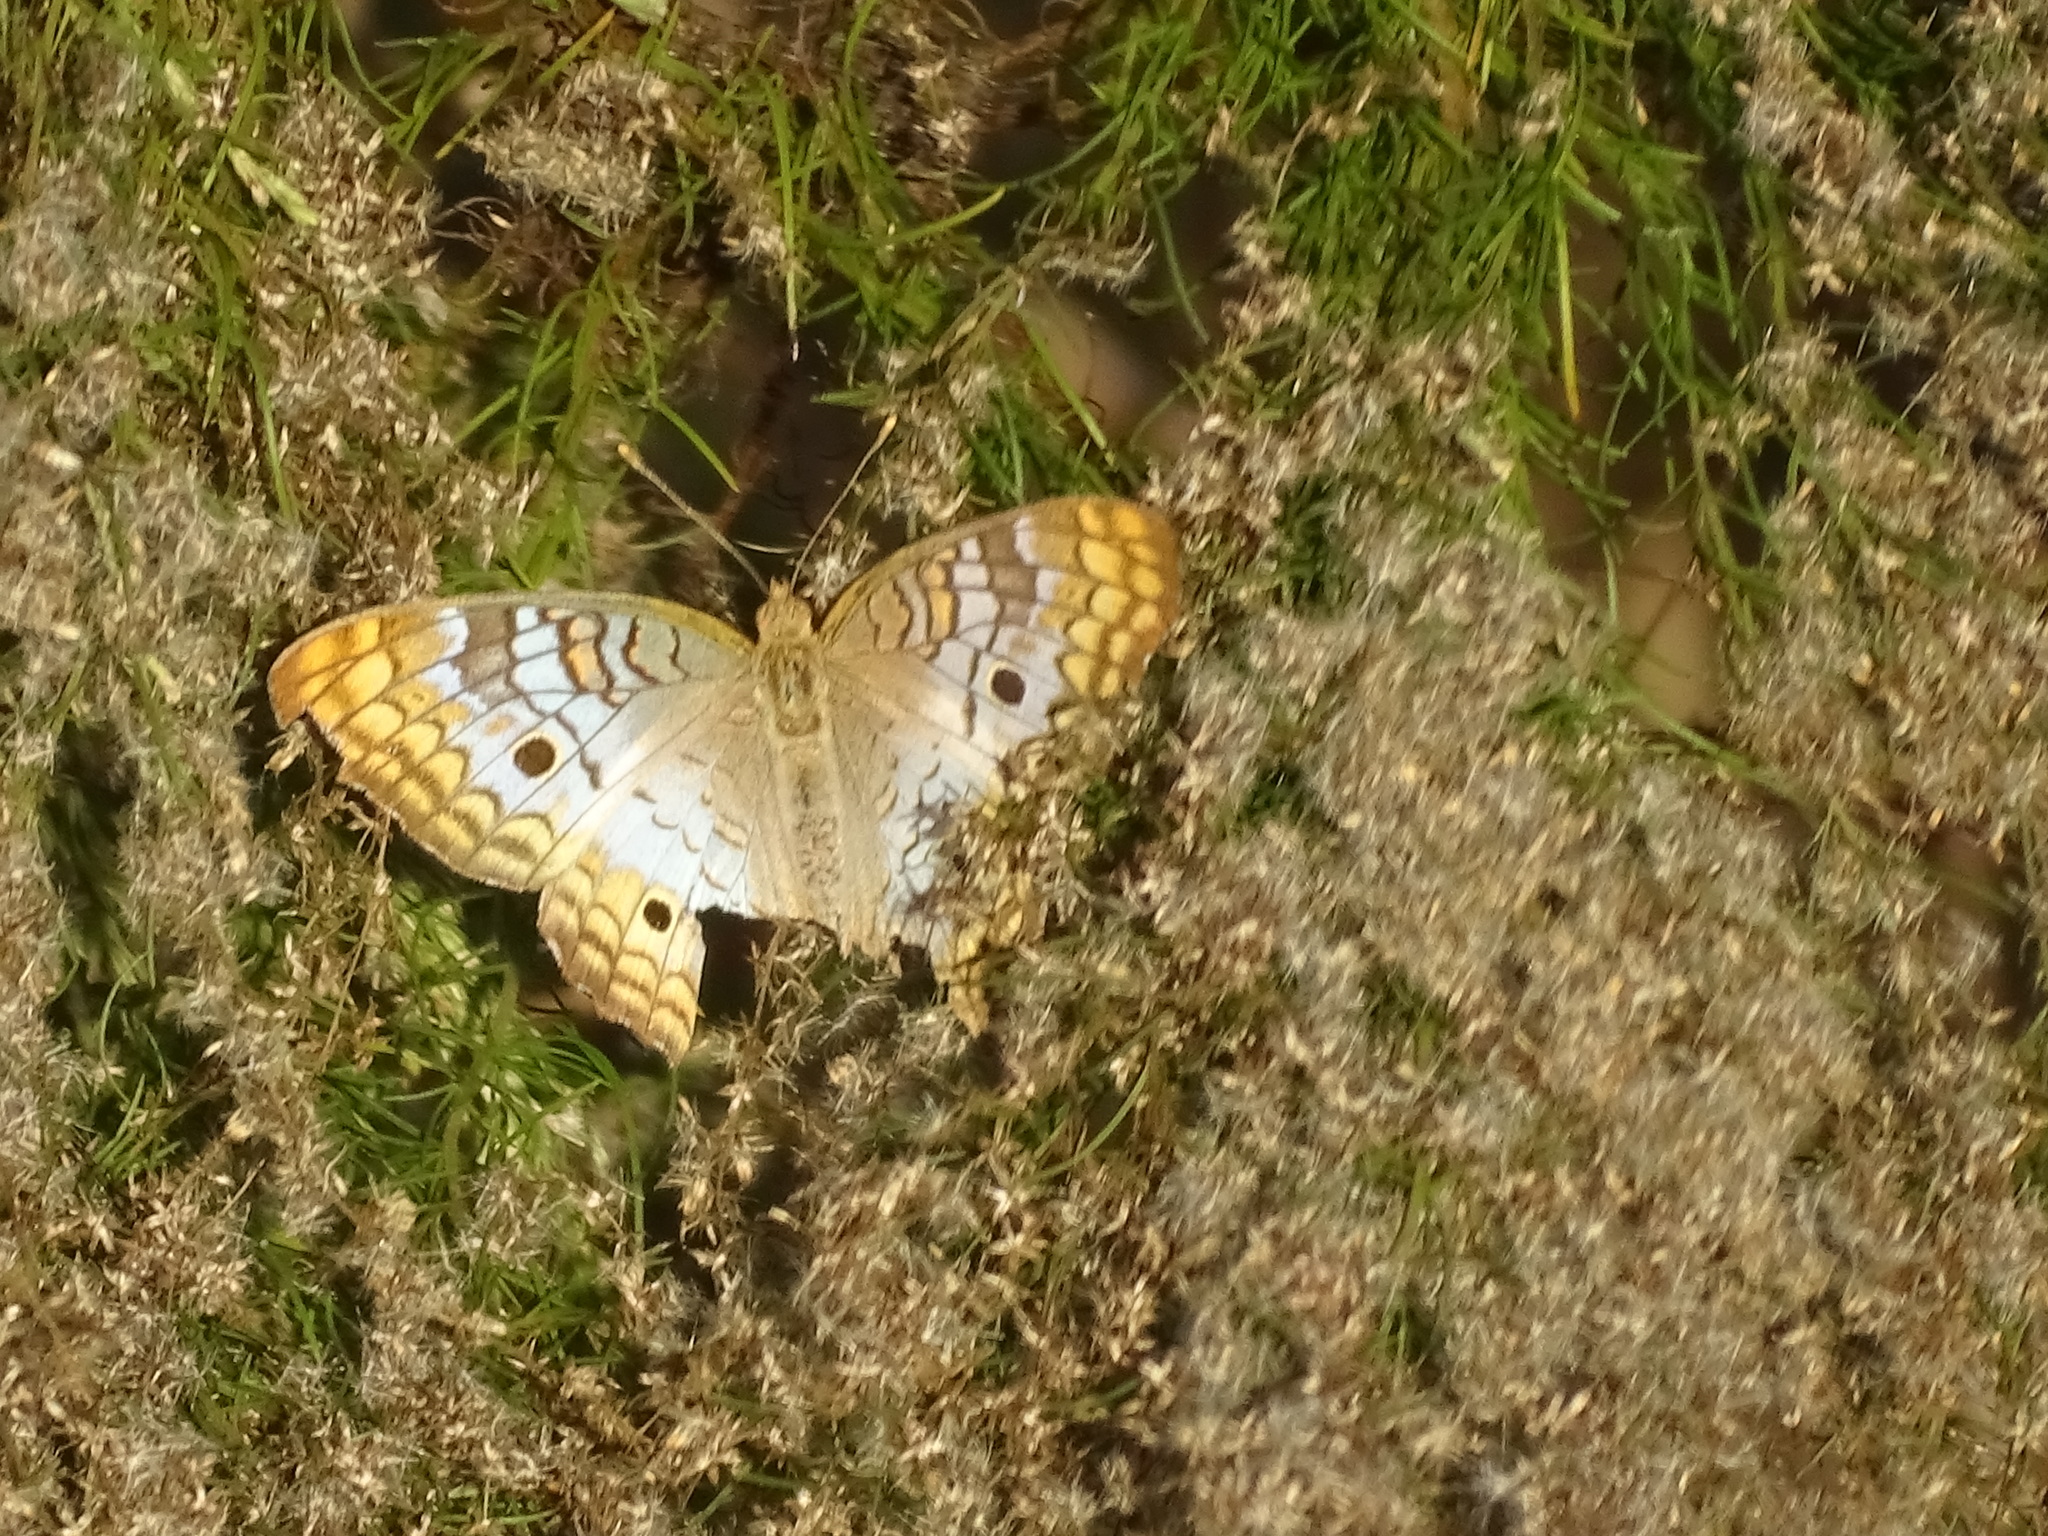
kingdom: Animalia
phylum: Arthropoda
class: Insecta
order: Lepidoptera
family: Nymphalidae
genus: Anartia
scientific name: Anartia jatrophae
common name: White peacock
